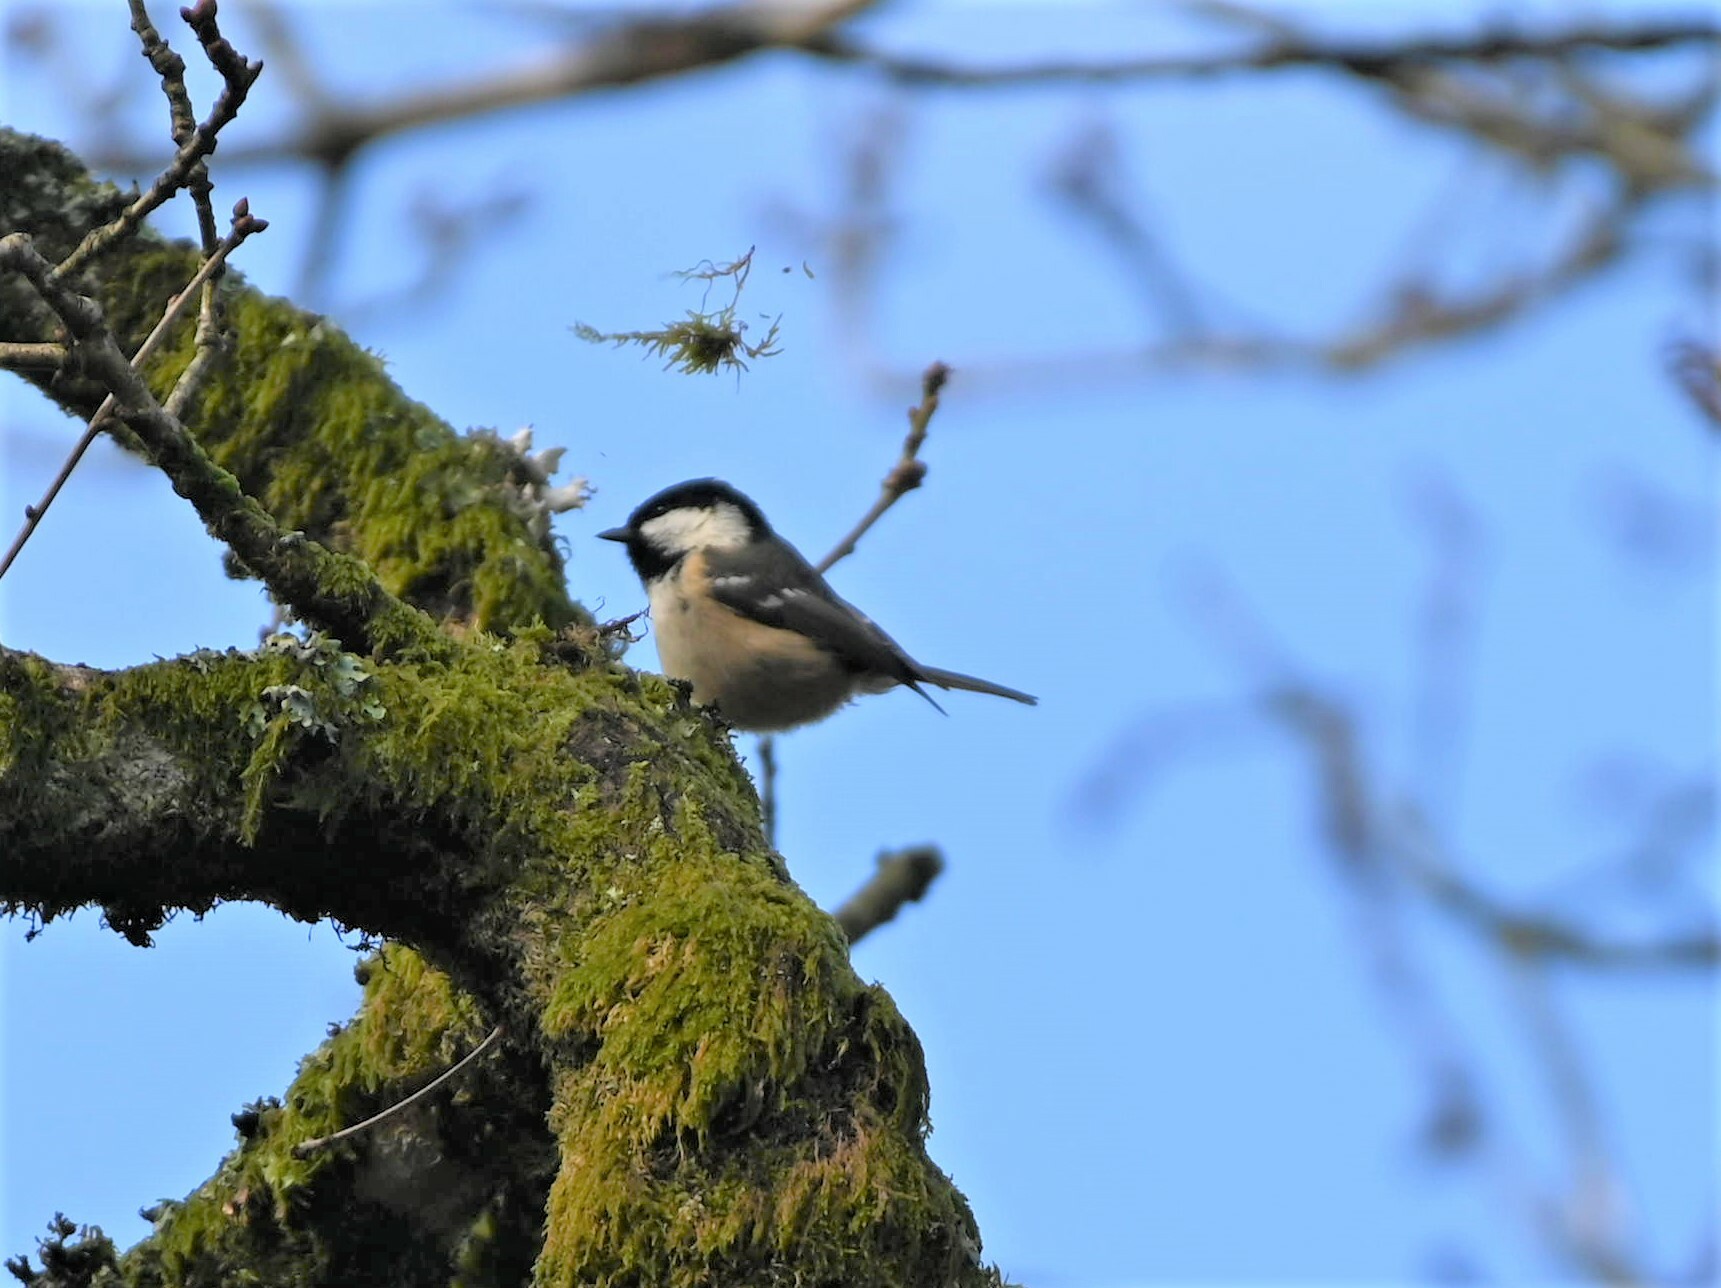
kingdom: Animalia
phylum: Chordata
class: Aves
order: Passeriformes
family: Paridae
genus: Periparus
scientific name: Periparus ater
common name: Coal tit
